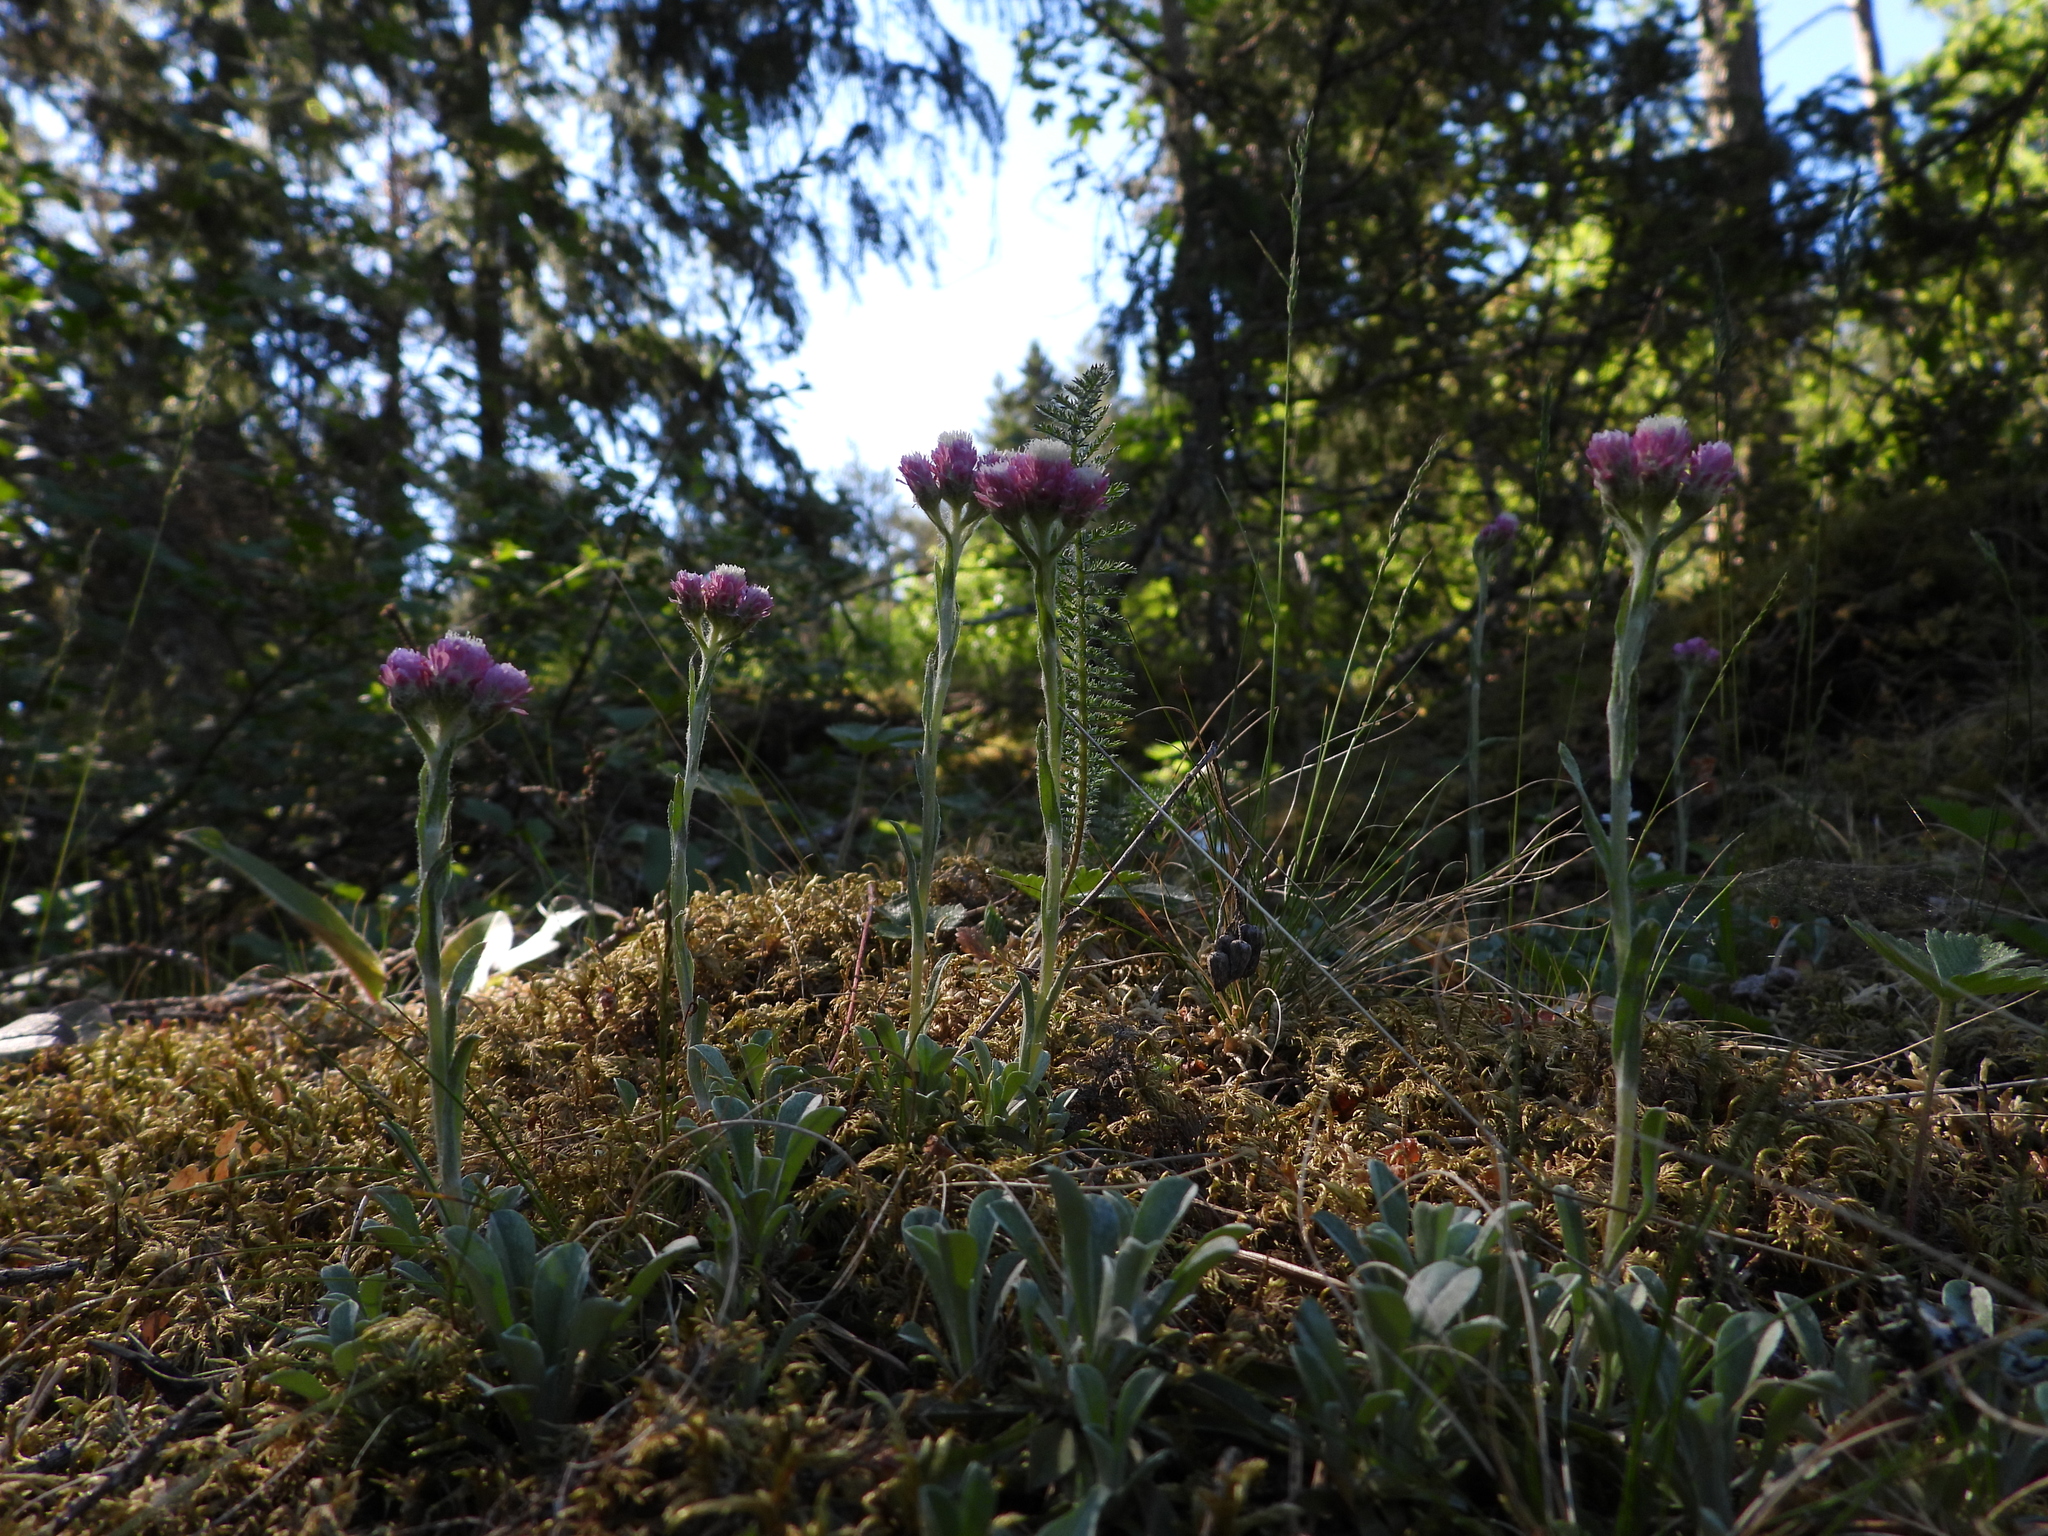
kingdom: Plantae
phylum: Tracheophyta
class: Magnoliopsida
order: Asterales
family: Asteraceae
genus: Antennaria
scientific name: Antennaria dioica
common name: Mountain everlasting
